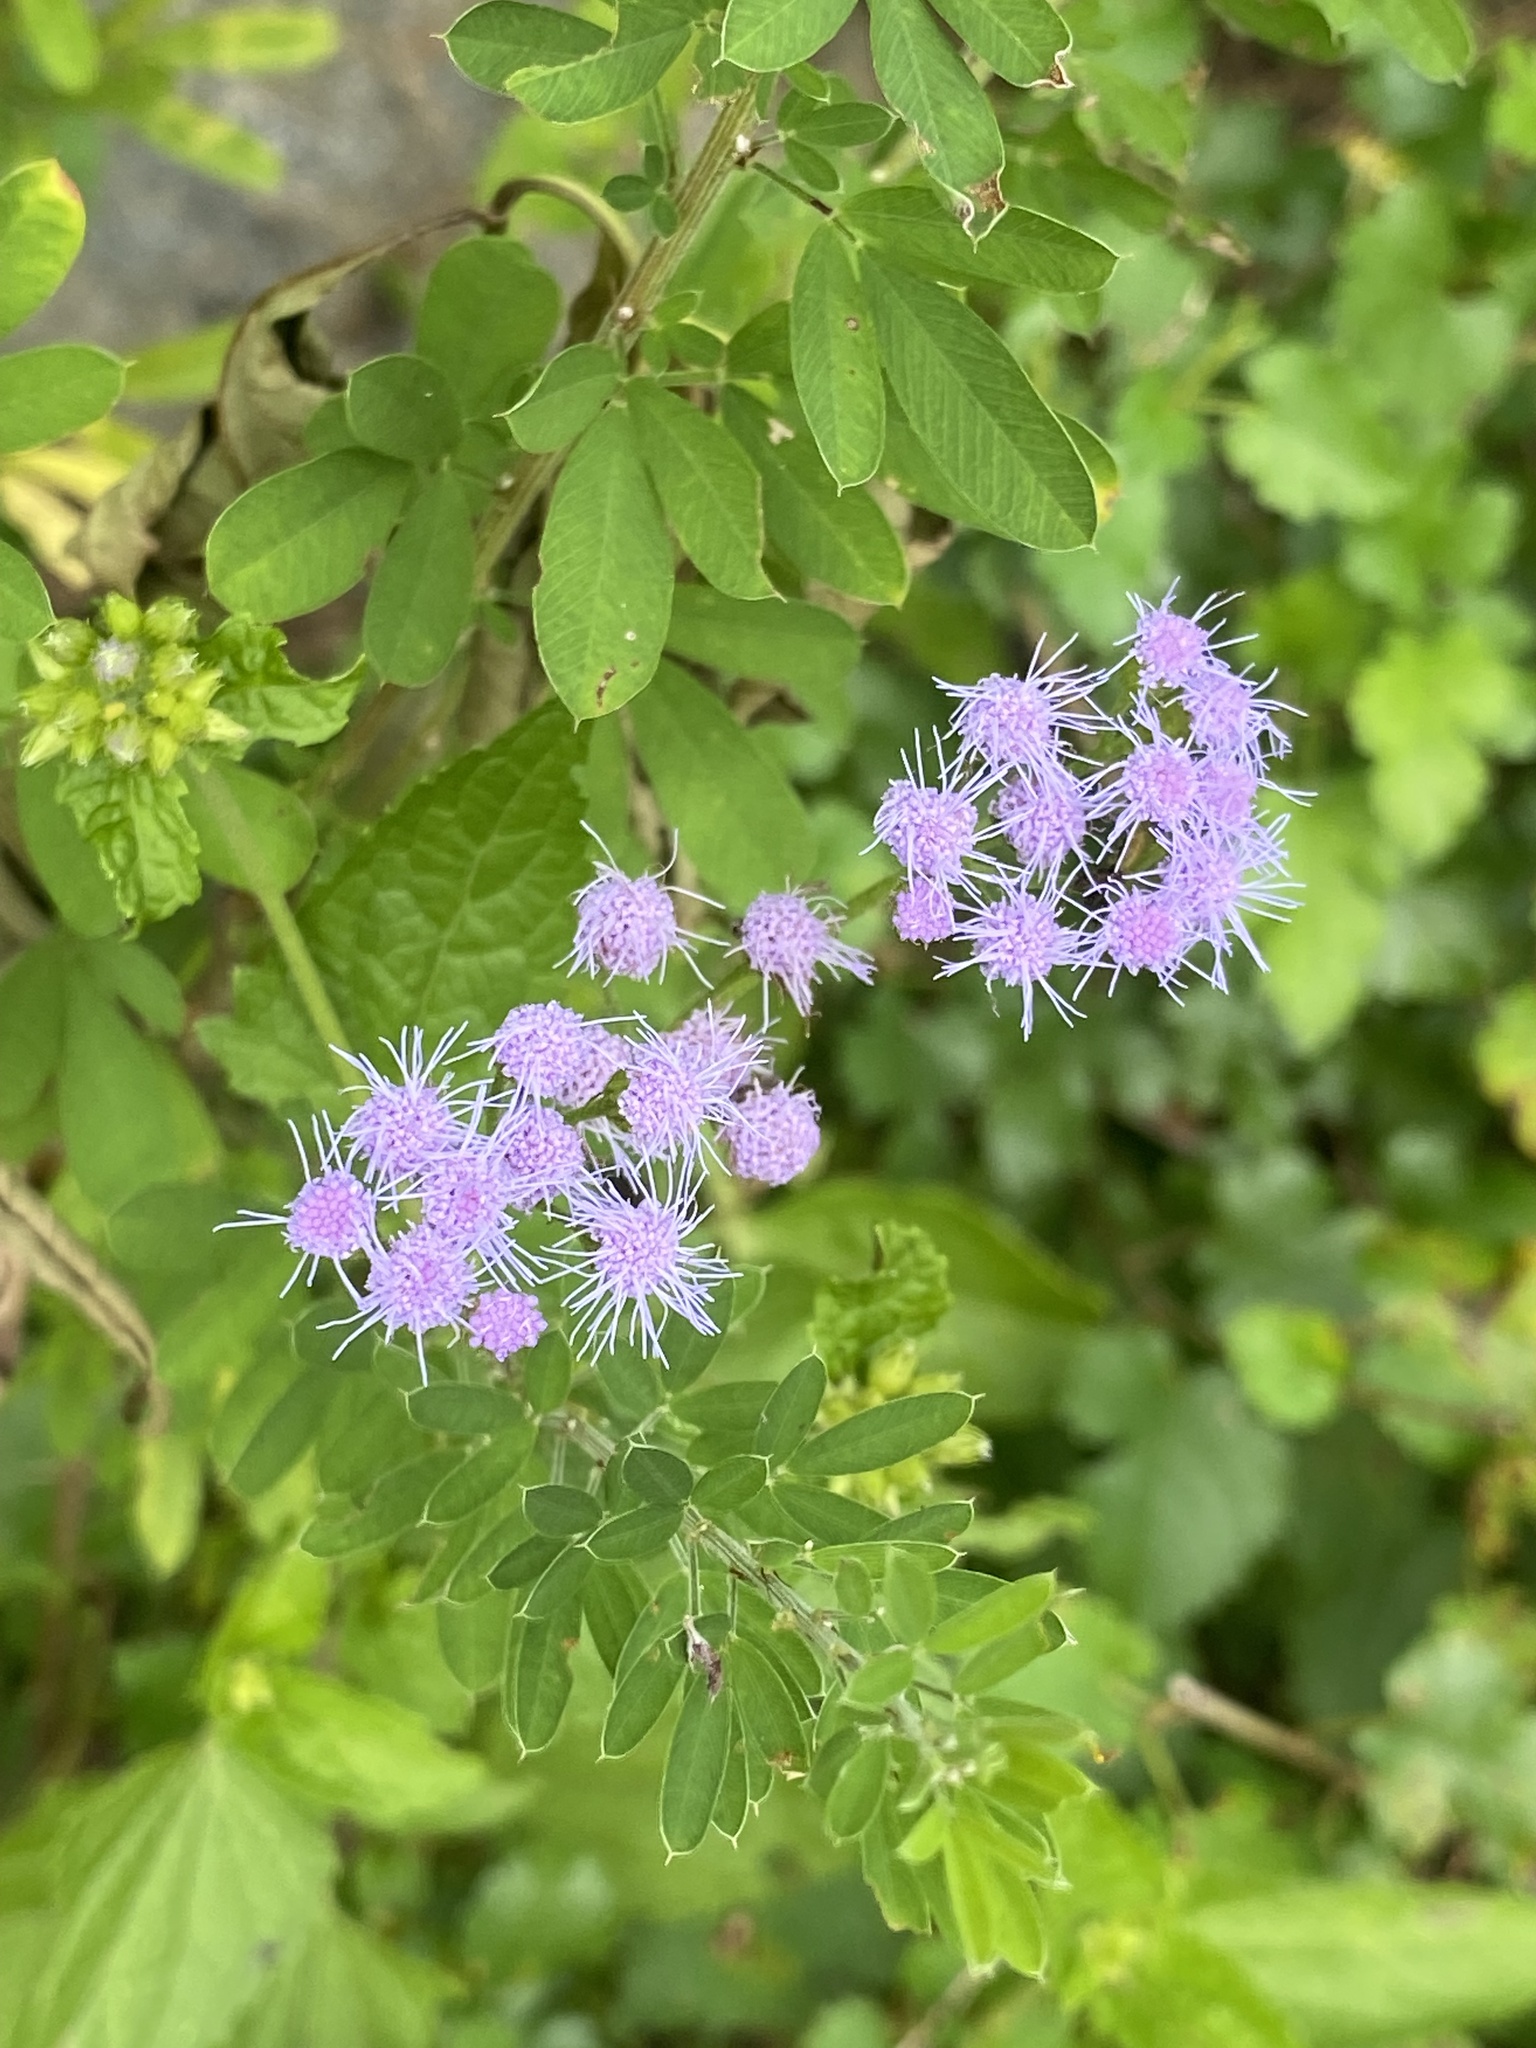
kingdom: Plantae
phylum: Tracheophyta
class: Magnoliopsida
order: Asterales
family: Asteraceae
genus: Conoclinium
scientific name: Conoclinium coelestinum
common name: Blue mistflower
